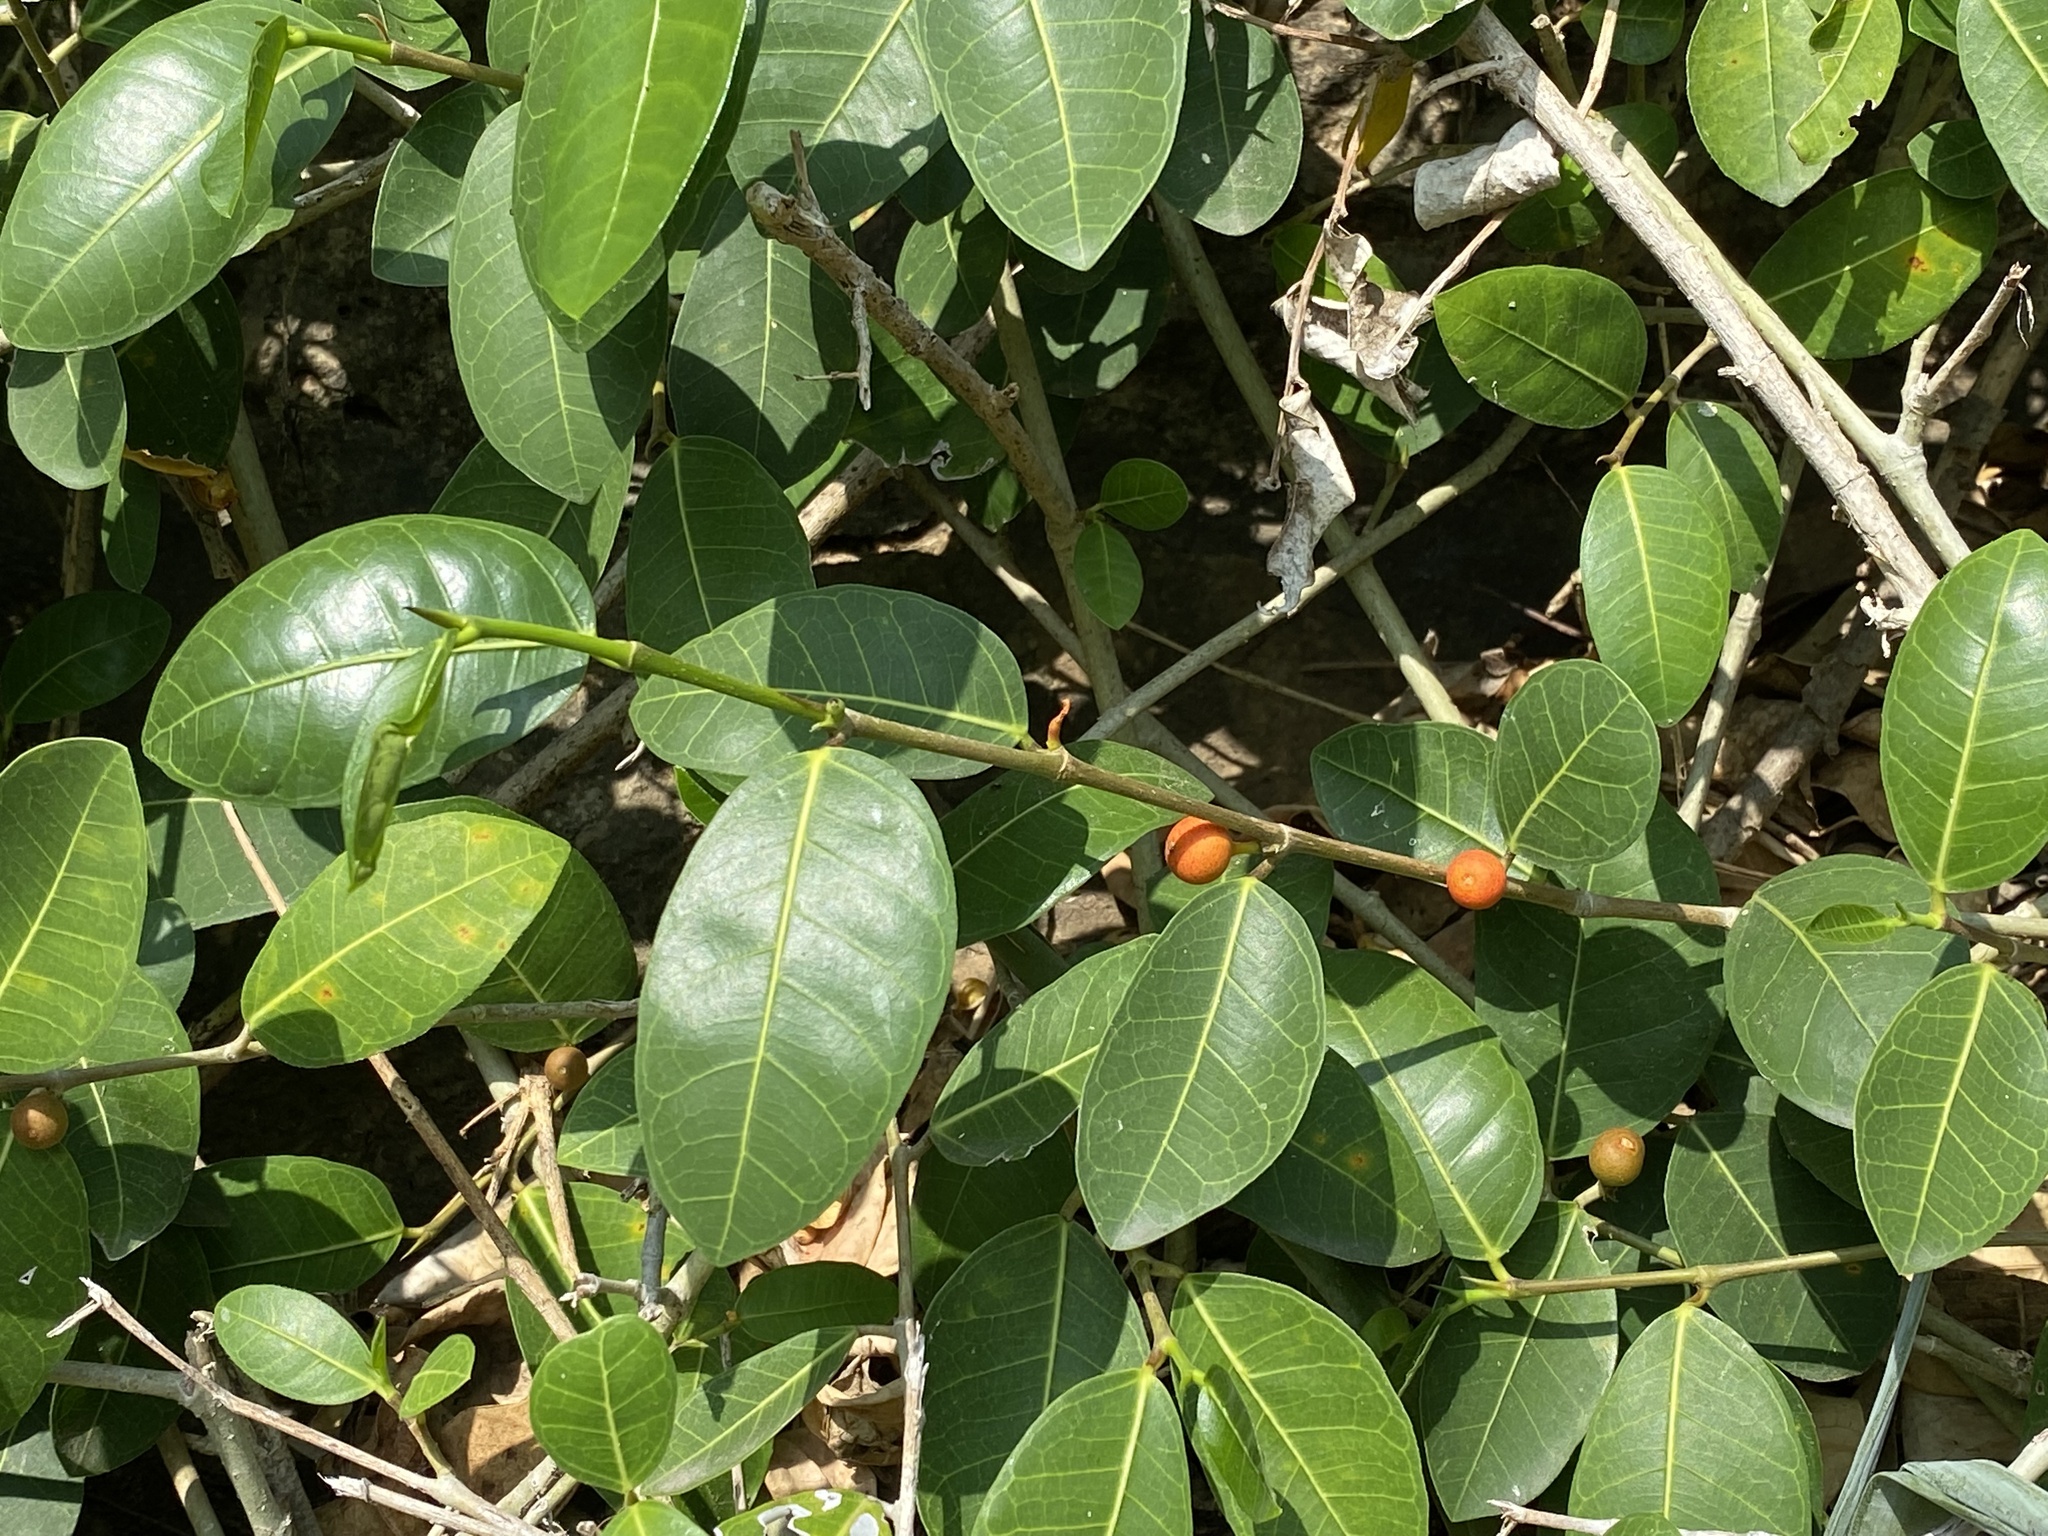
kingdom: Plantae
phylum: Tracheophyta
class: Magnoliopsida
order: Rosales
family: Moraceae
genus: Ficus
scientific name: Ficus tinctoria
